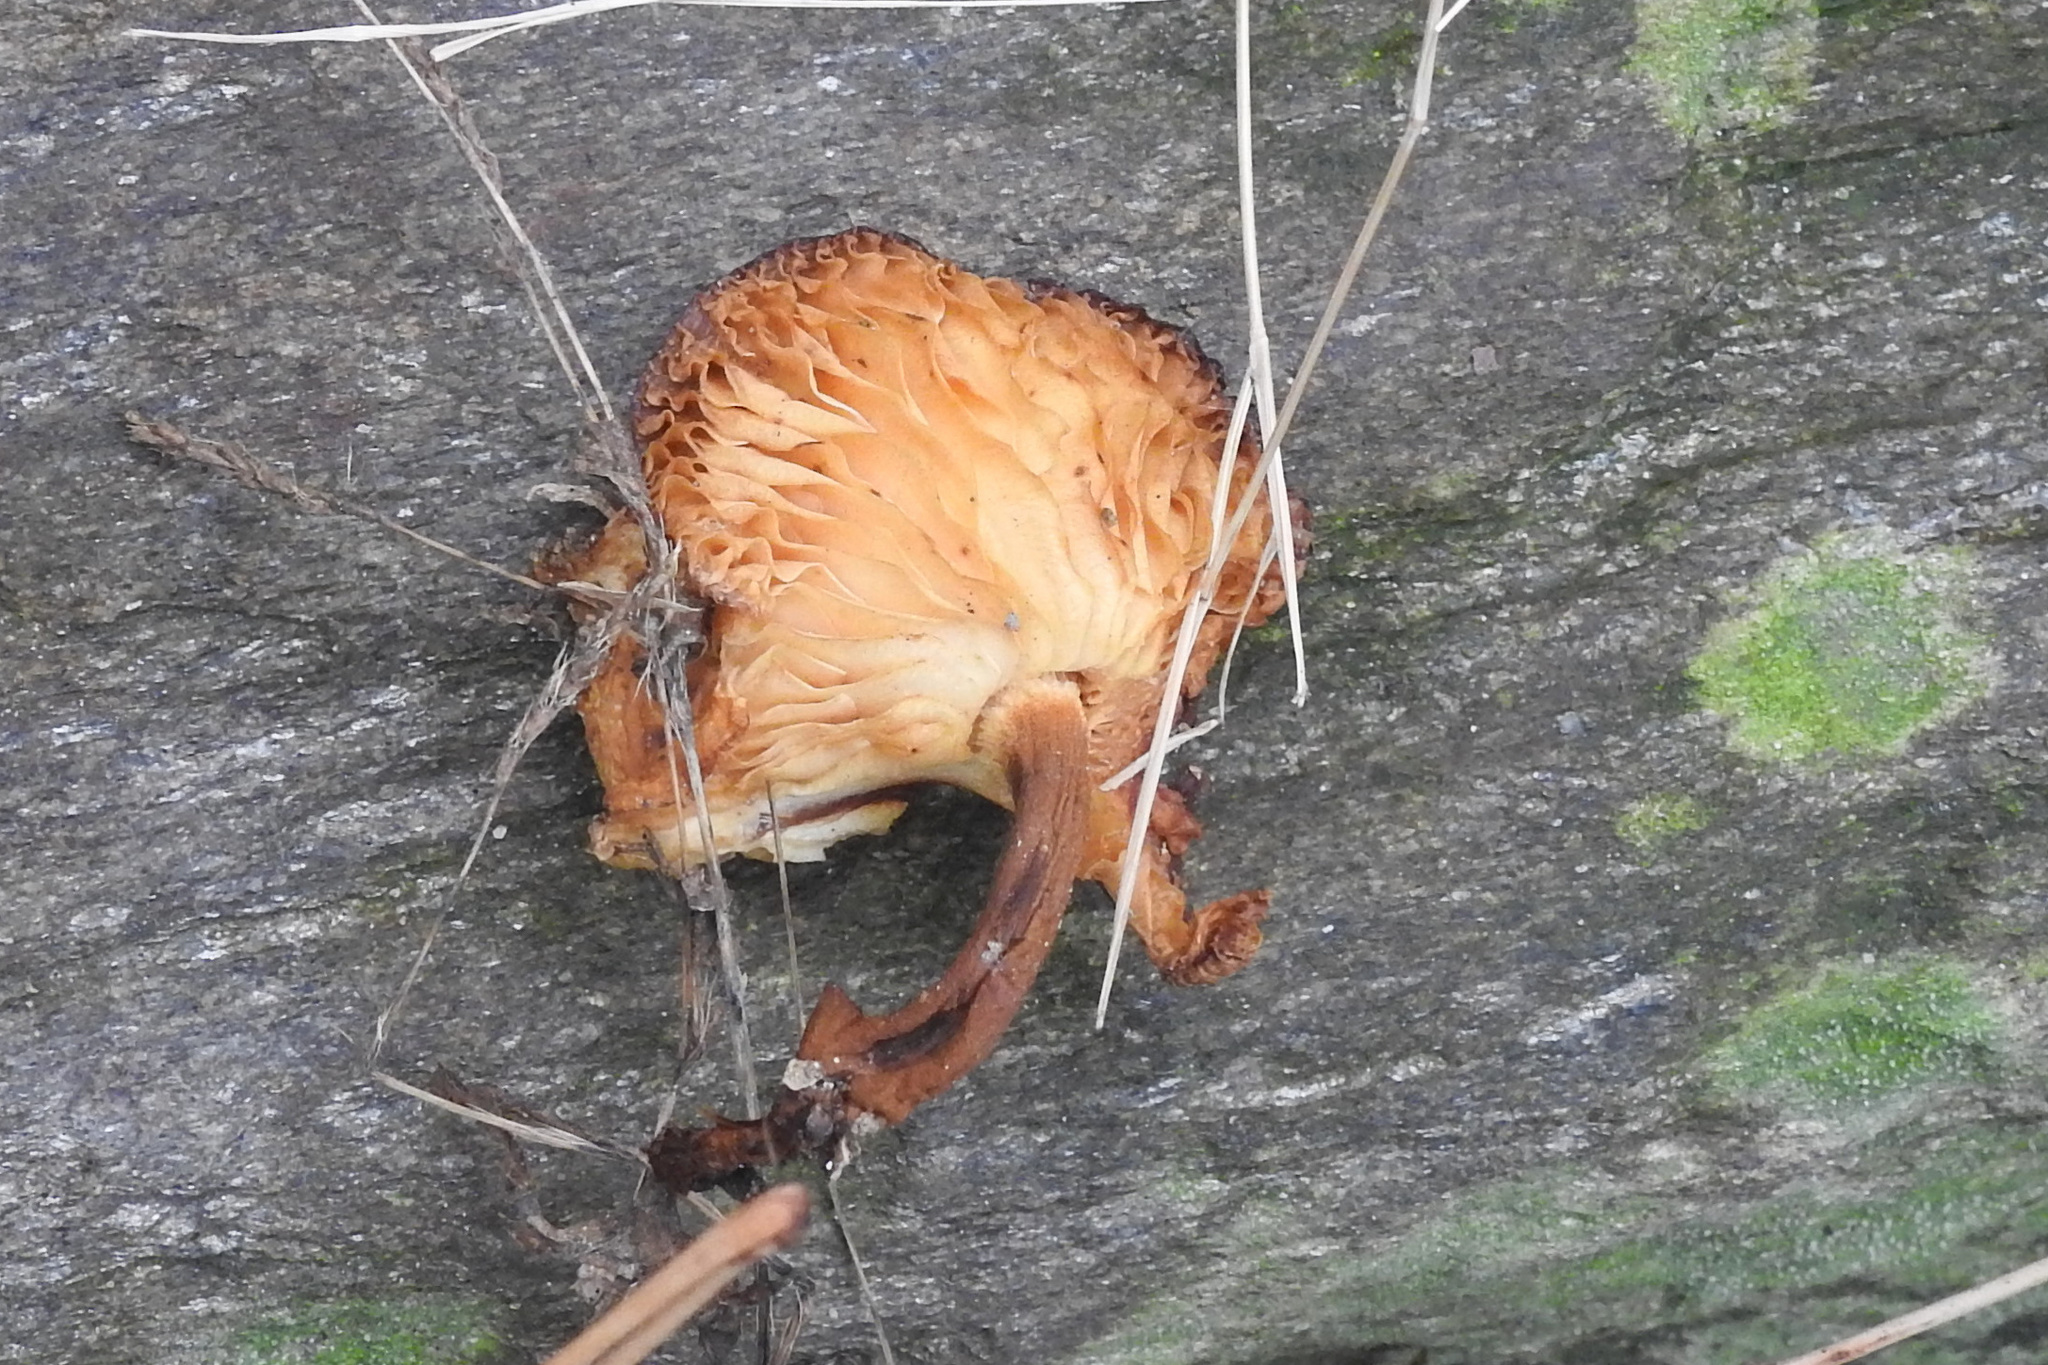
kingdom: Fungi
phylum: Basidiomycota
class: Agaricomycetes
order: Agaricales
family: Physalacriaceae
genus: Flammulina
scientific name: Flammulina velutipes
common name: Velvet shank
